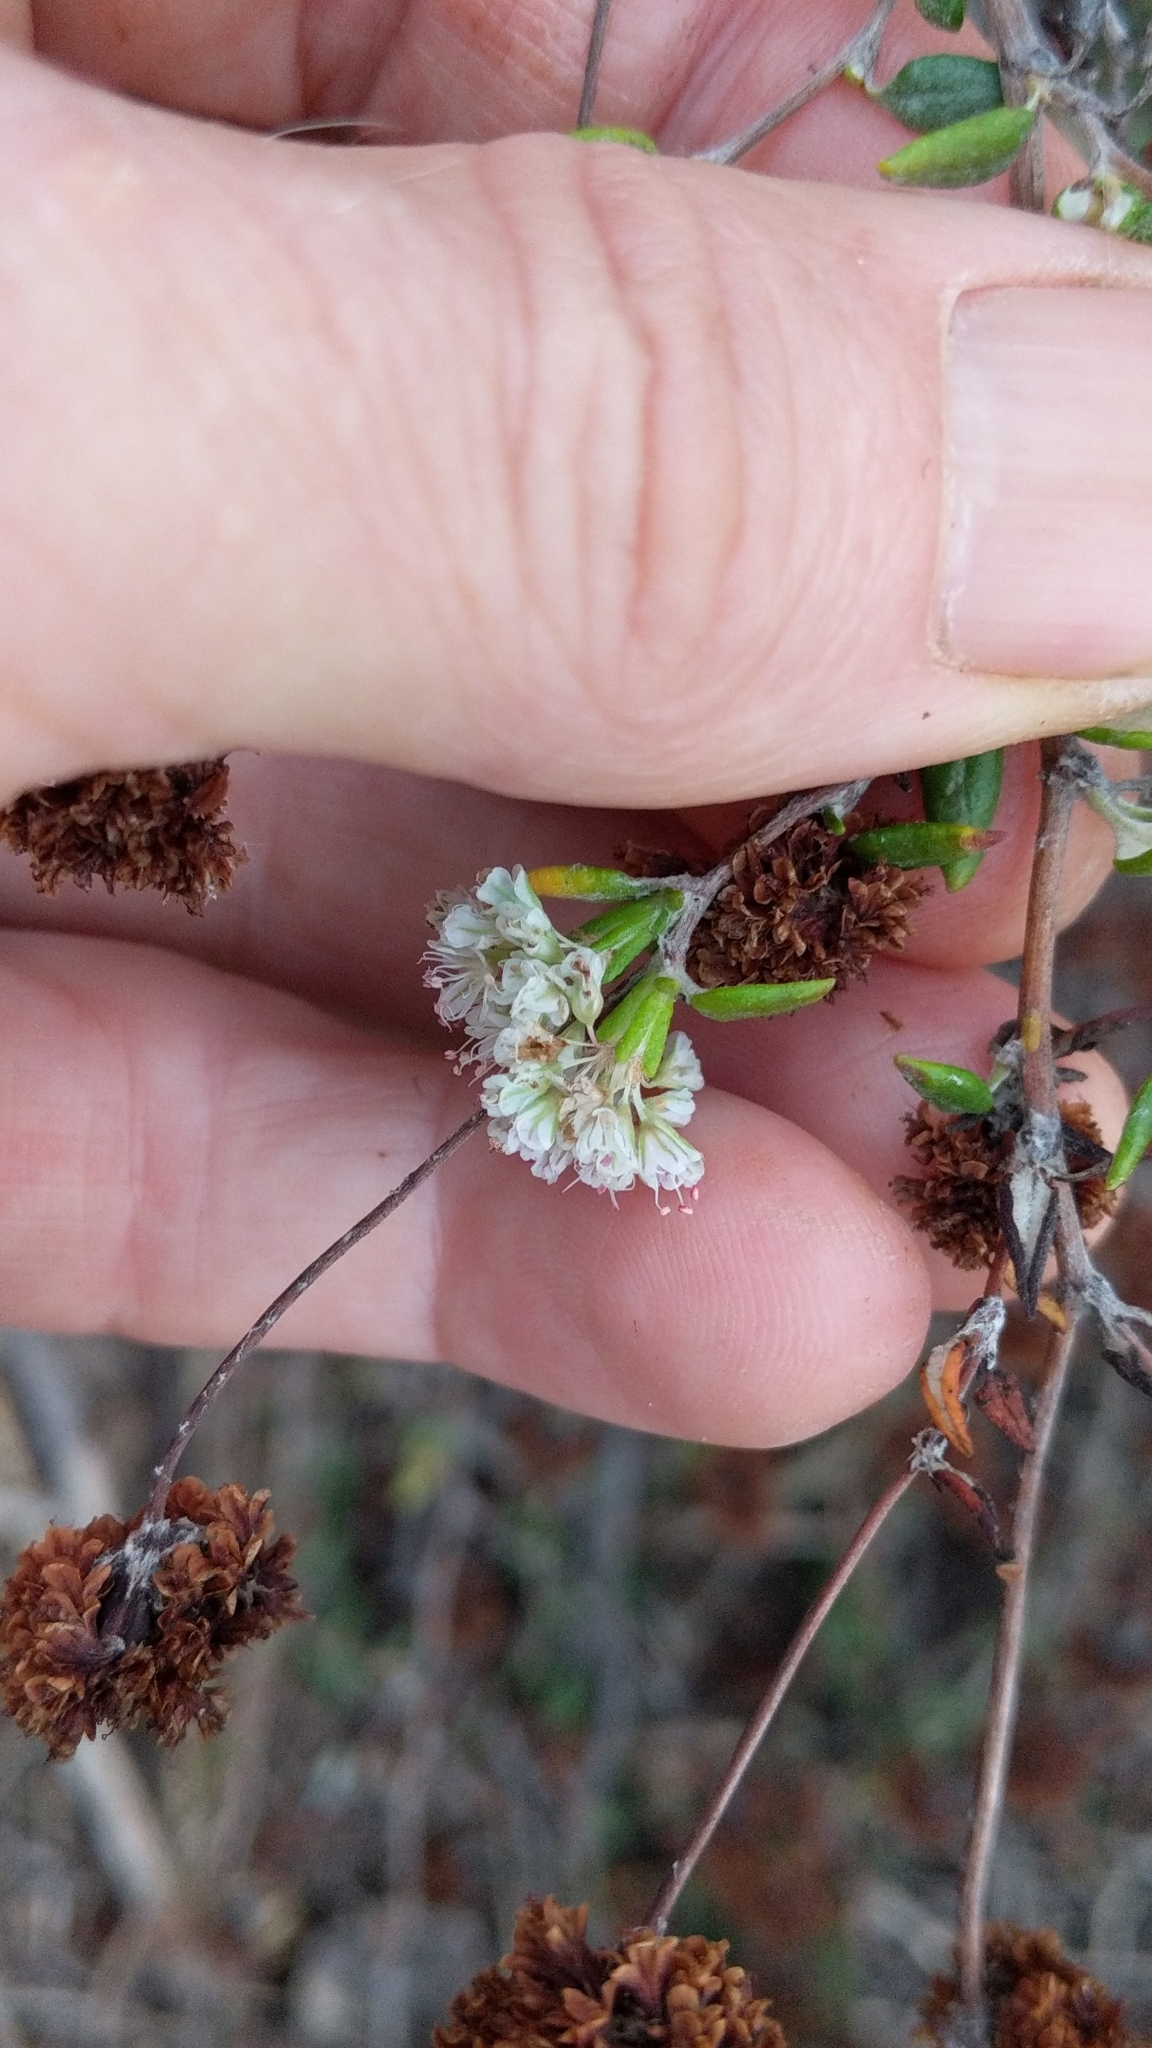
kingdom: Plantae
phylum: Tracheophyta
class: Magnoliopsida
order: Caryophyllales
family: Polygonaceae
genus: Eriogonum
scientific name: Eriogonum parvifolium
